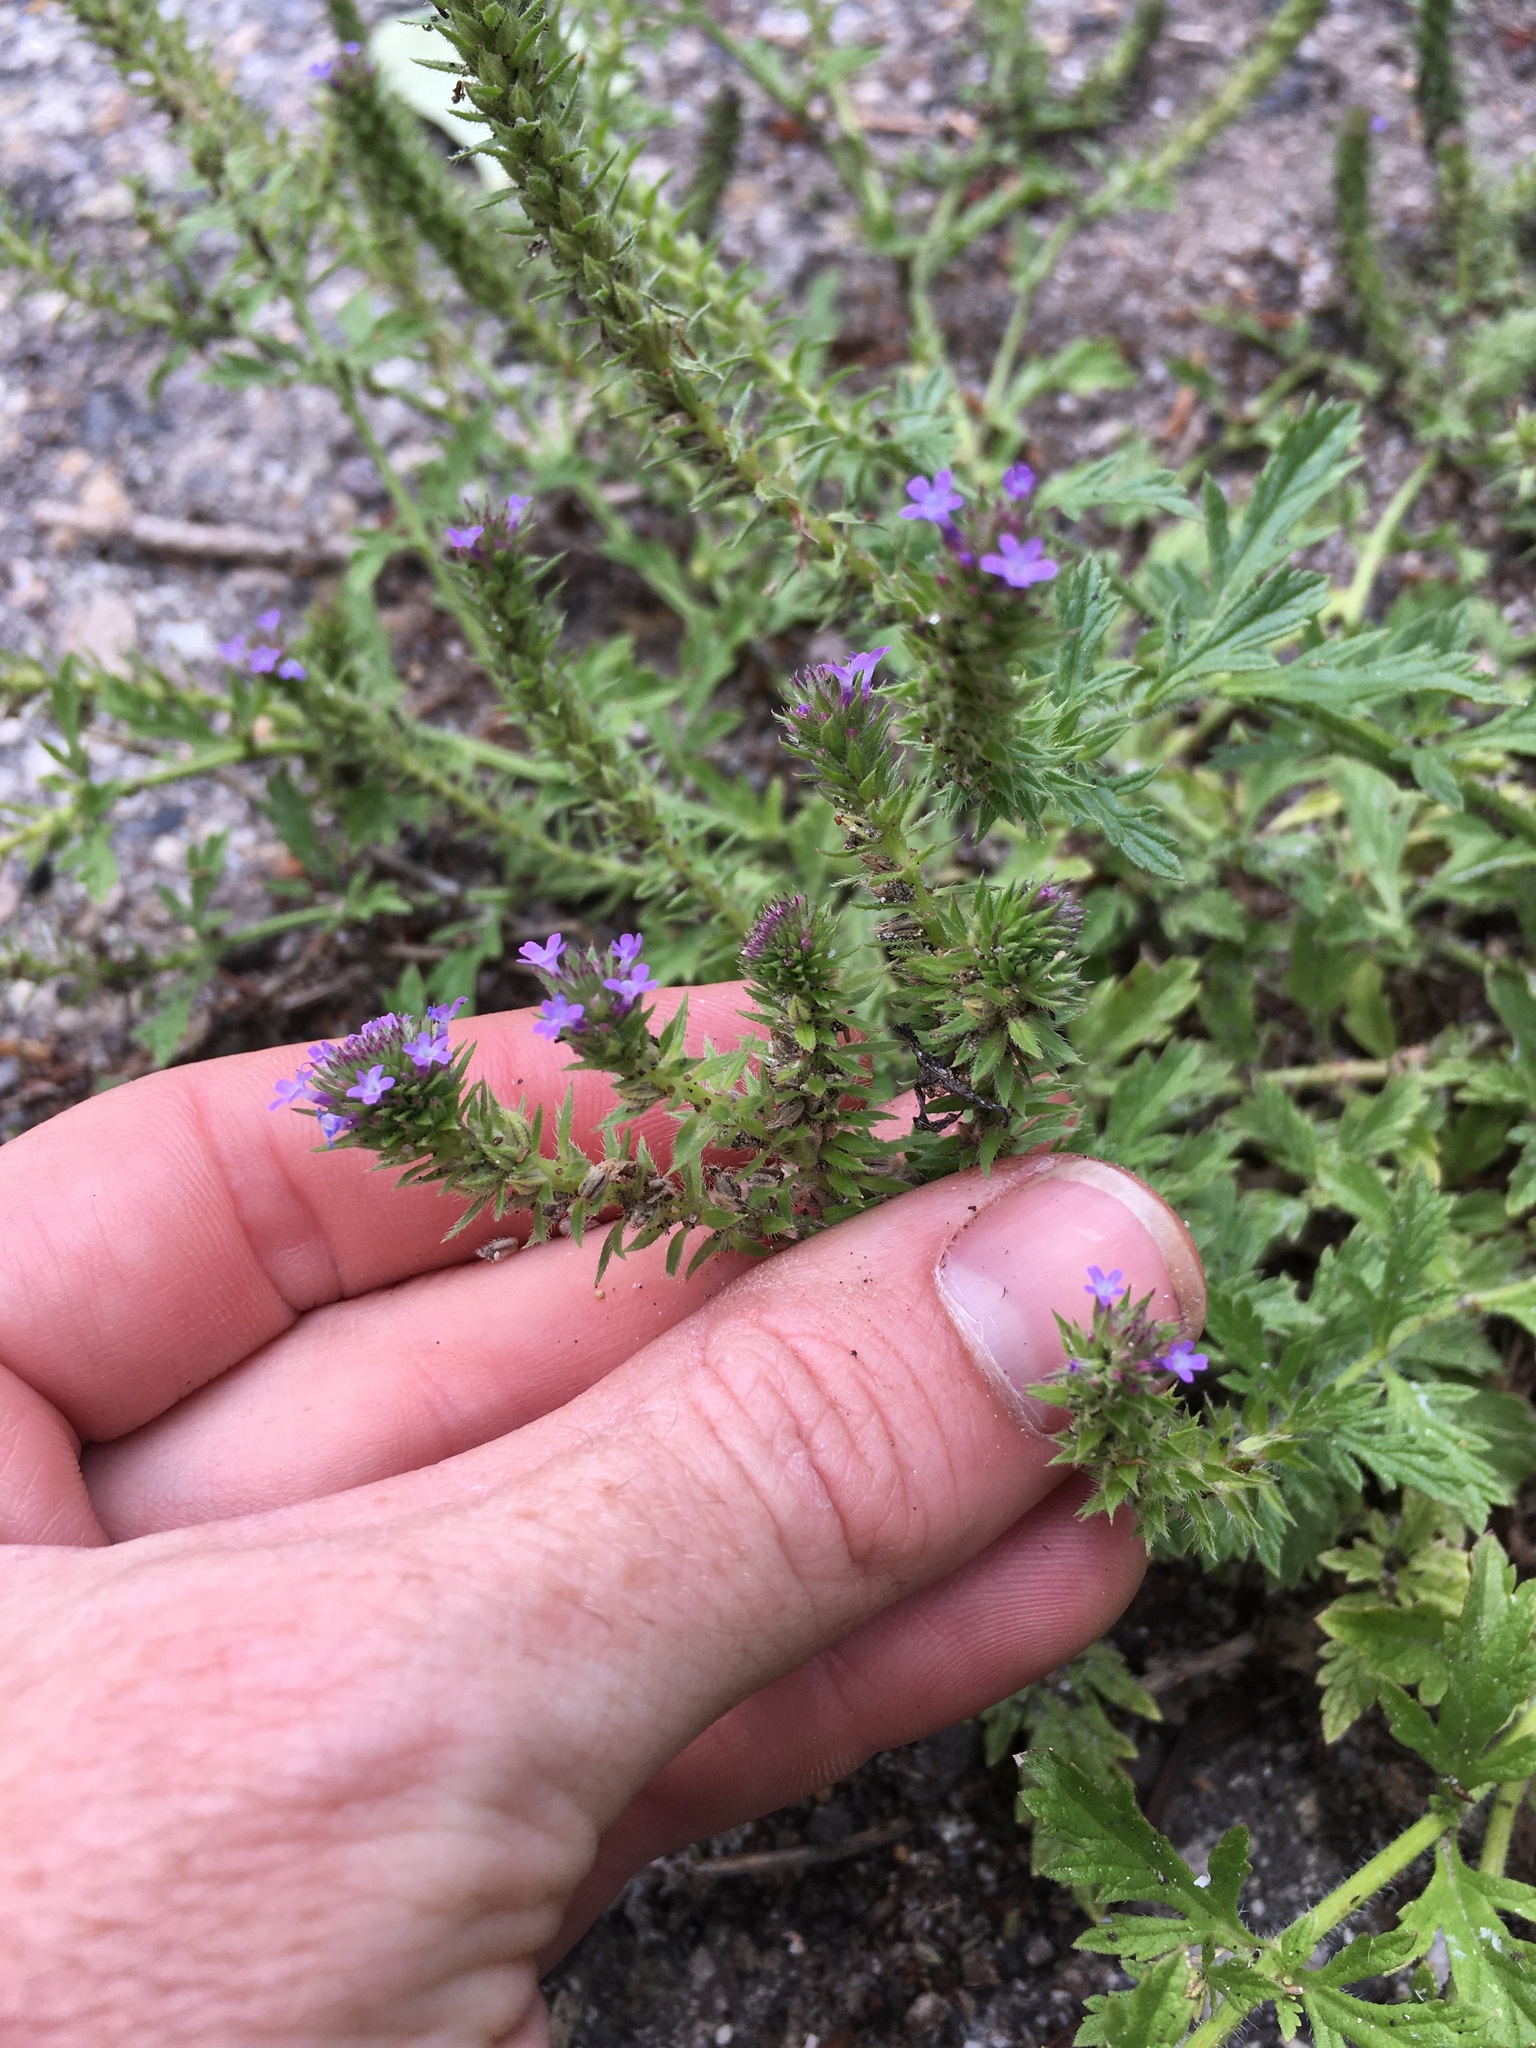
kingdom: Plantae
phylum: Tracheophyta
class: Magnoliopsida
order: Lamiales
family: Verbenaceae
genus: Verbena
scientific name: Verbena bracteata
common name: Bracted vervain
